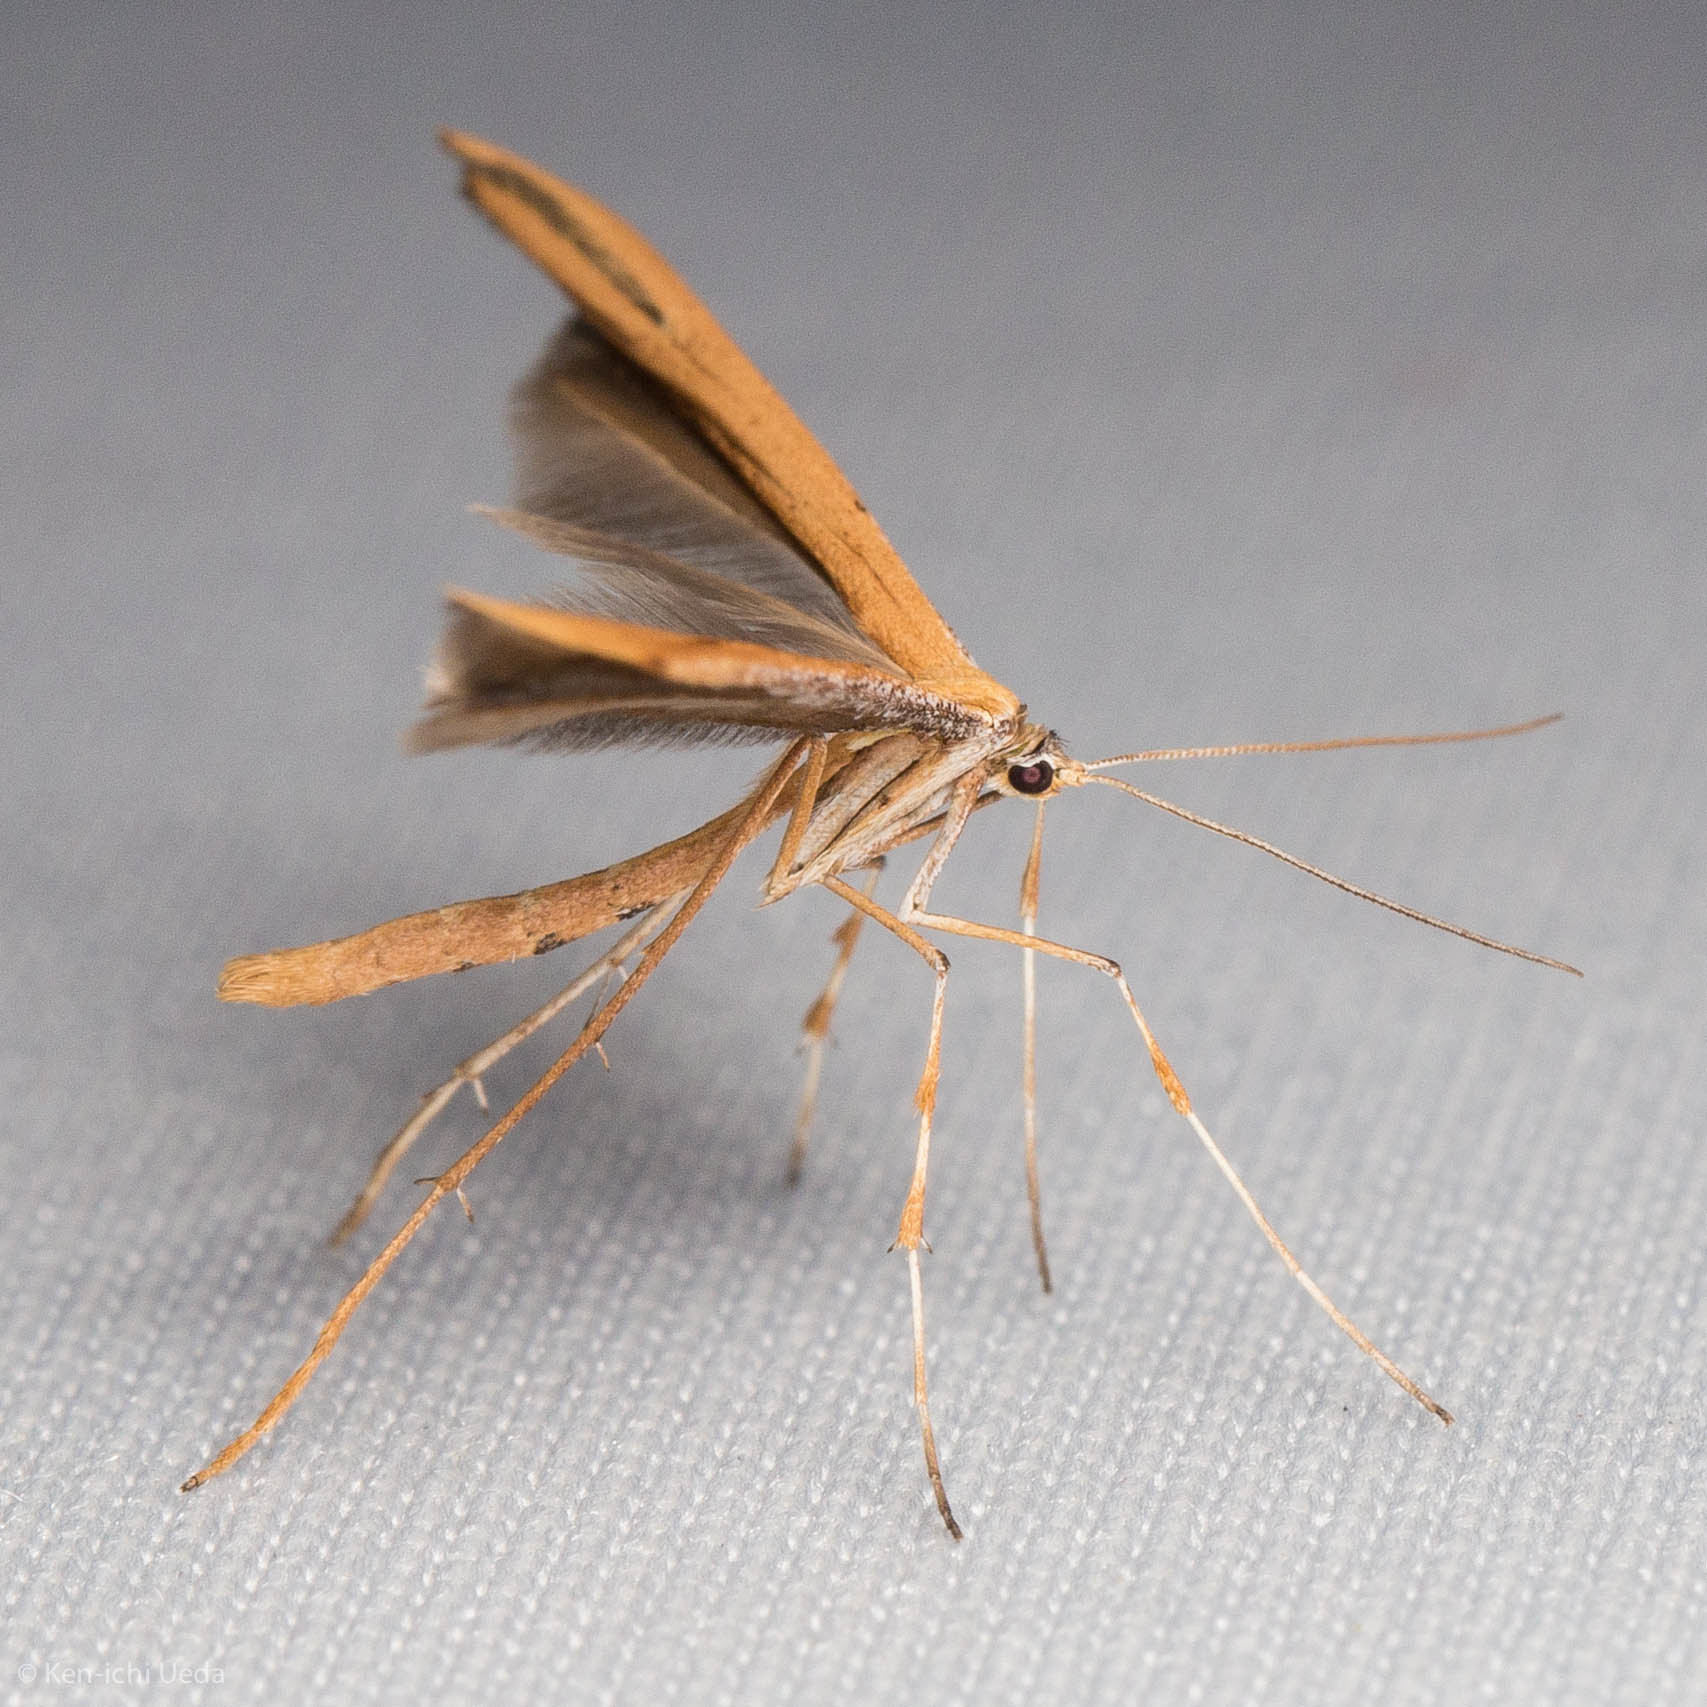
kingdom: Animalia
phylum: Arthropoda
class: Insecta
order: Lepidoptera
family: Pterophoridae
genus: Emmelina
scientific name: Emmelina monodactyla
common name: Common plume
